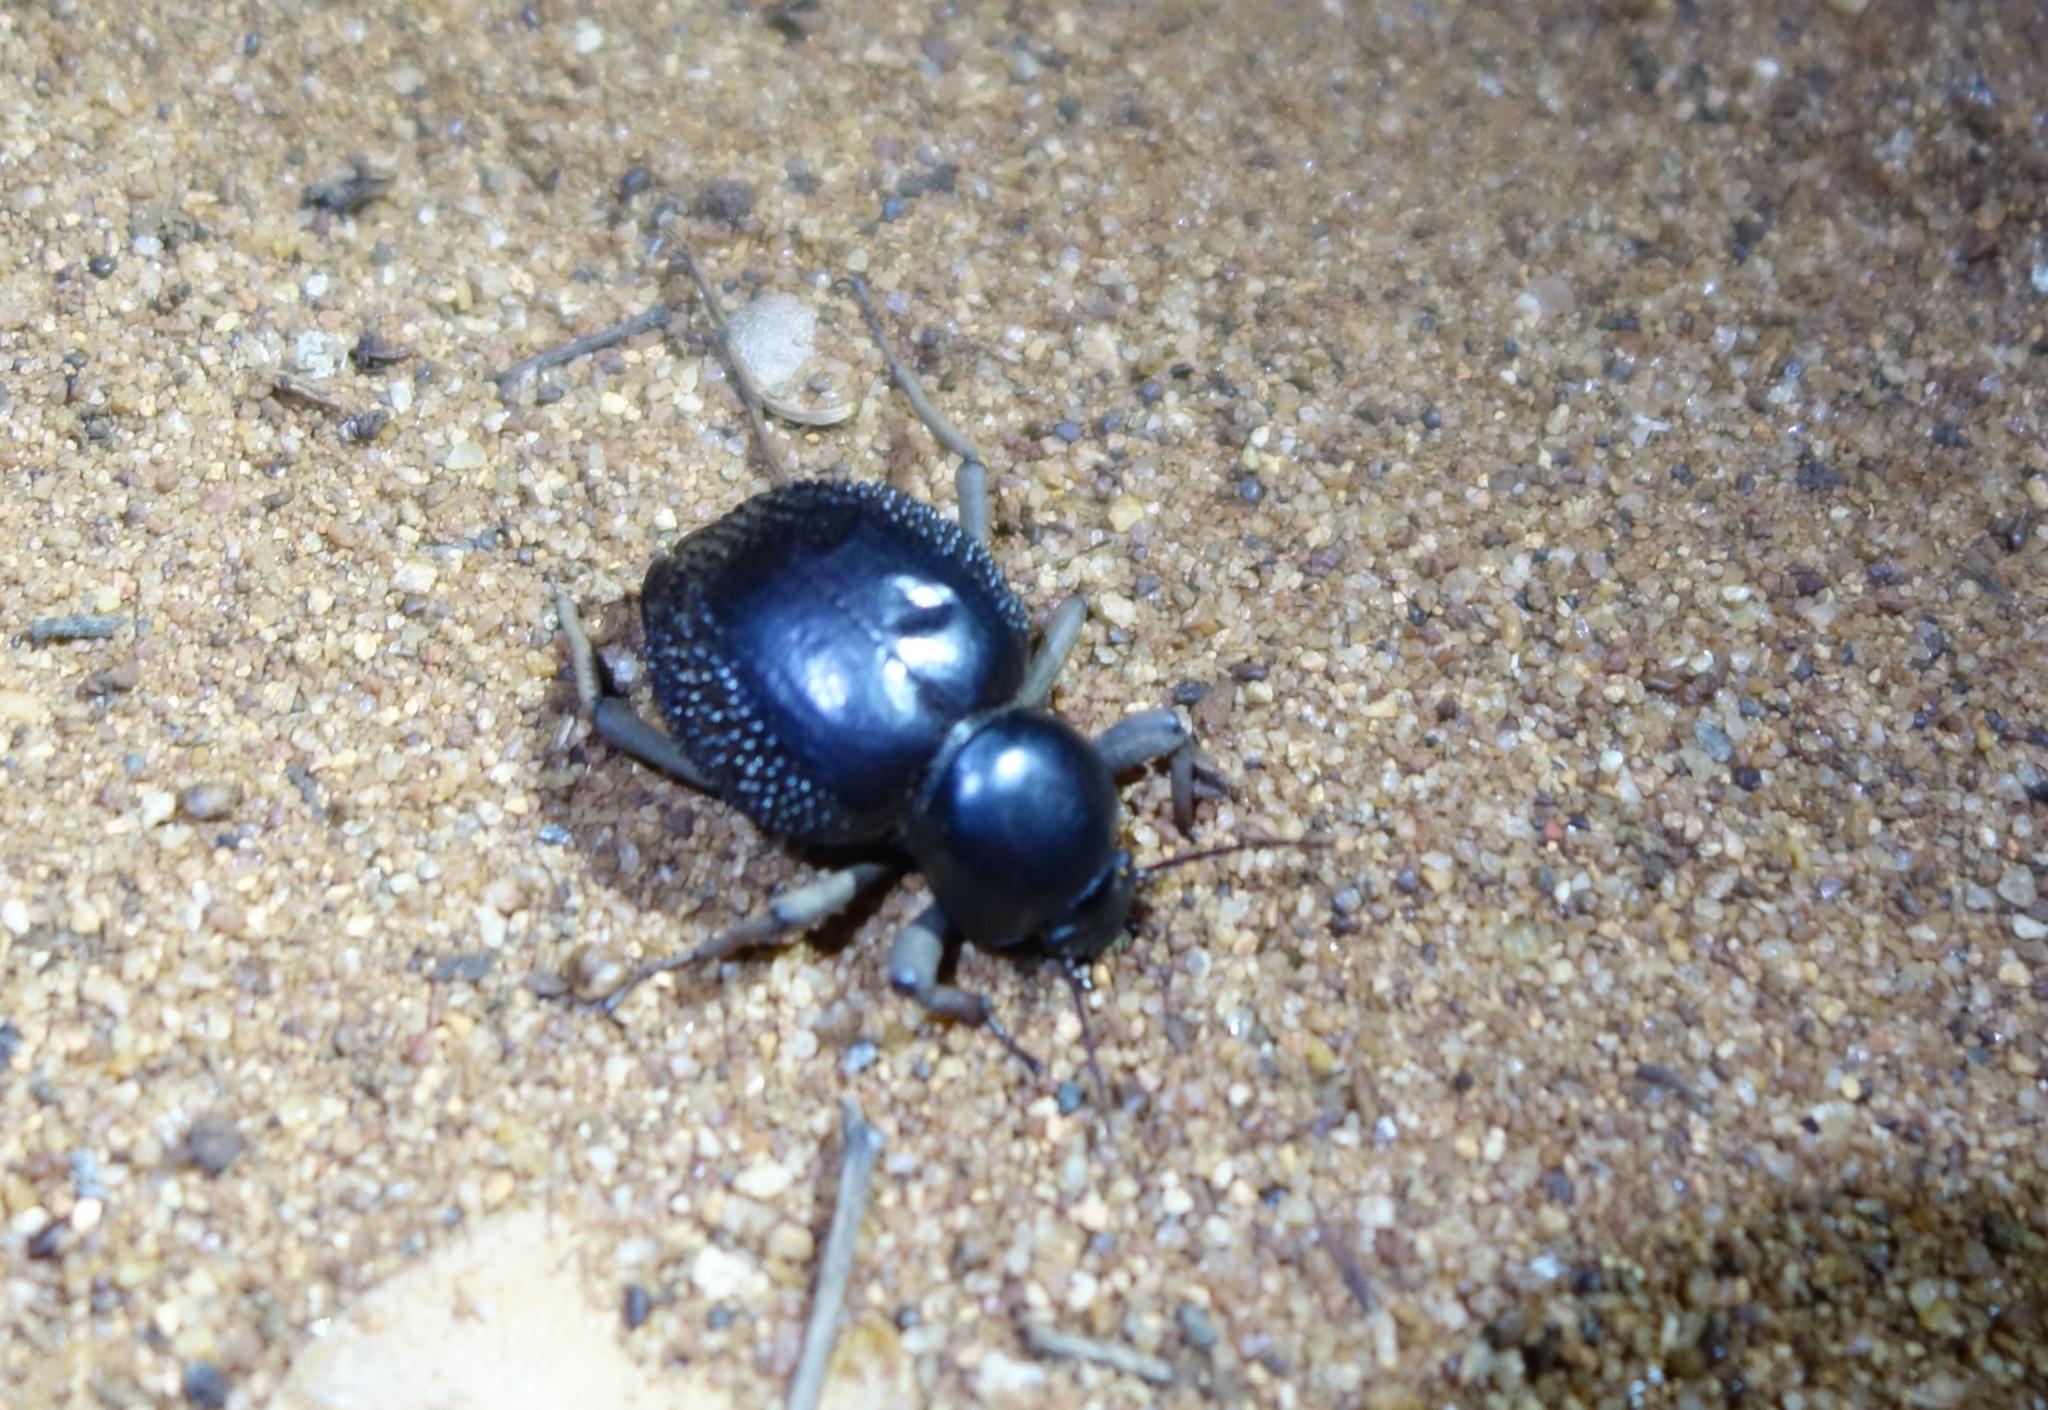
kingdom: Animalia
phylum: Arthropoda
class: Insecta
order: Coleoptera
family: Tenebrionidae
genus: Toktokkus
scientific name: Toktokkus makuya
